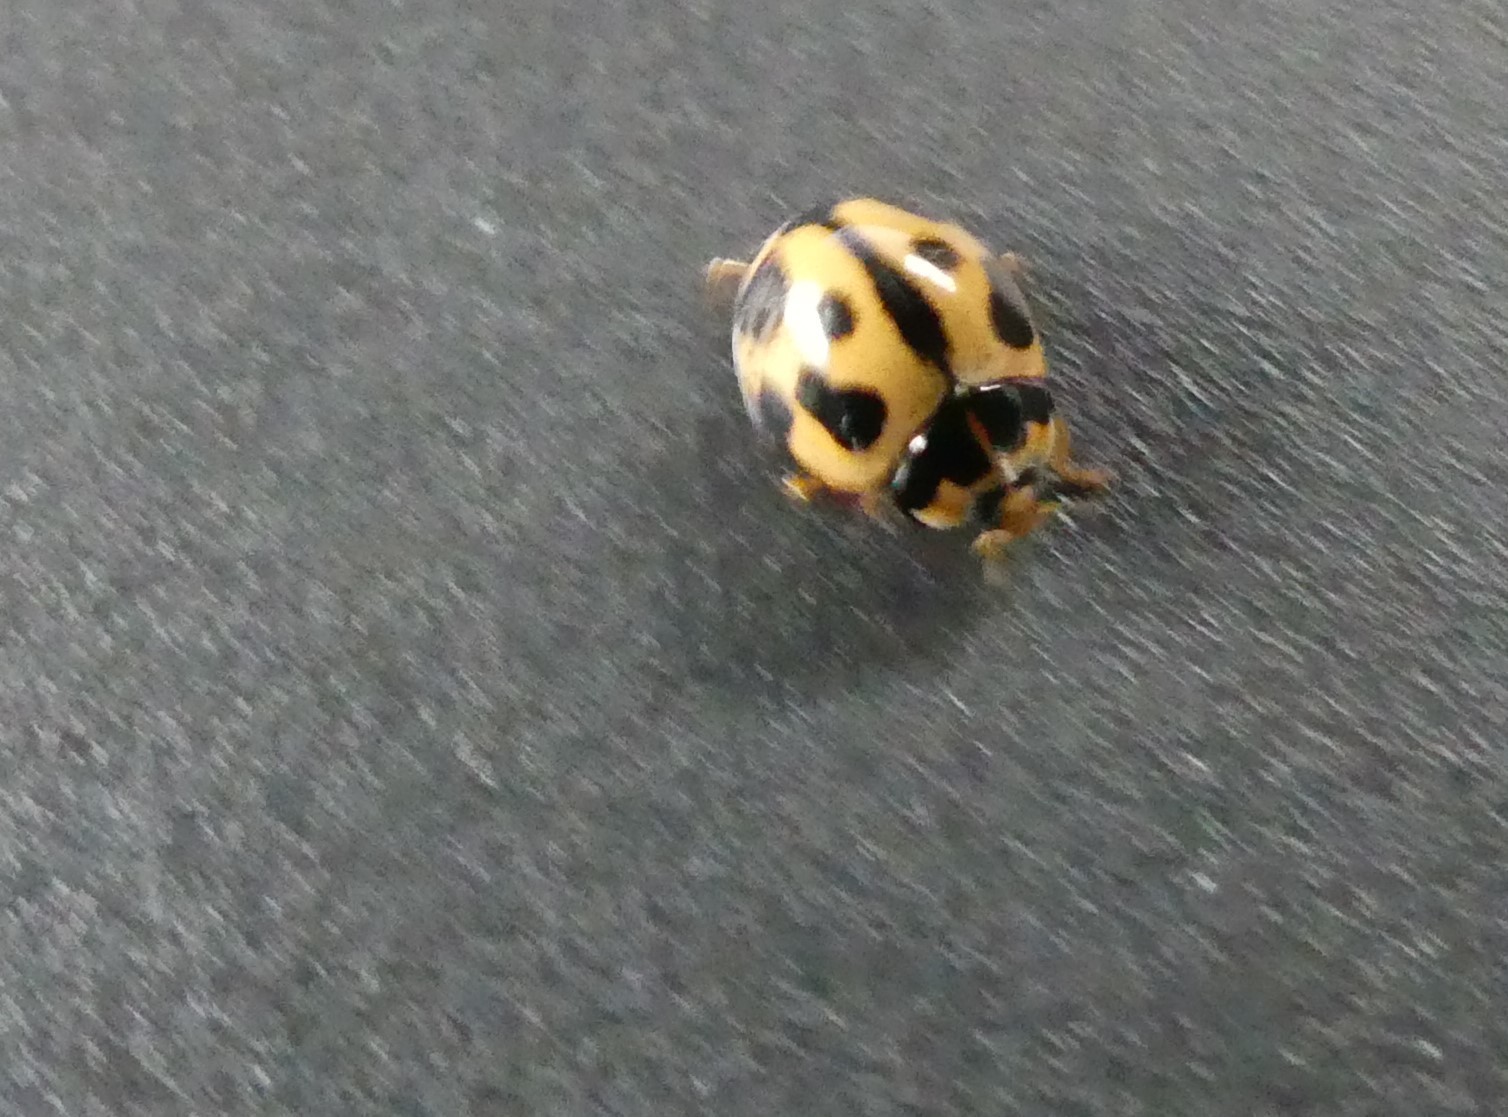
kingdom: Animalia
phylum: Arthropoda
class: Insecta
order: Coleoptera
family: Coccinellidae
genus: Coelophora
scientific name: Coelophora inaequalis
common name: Common australian lady beetle
